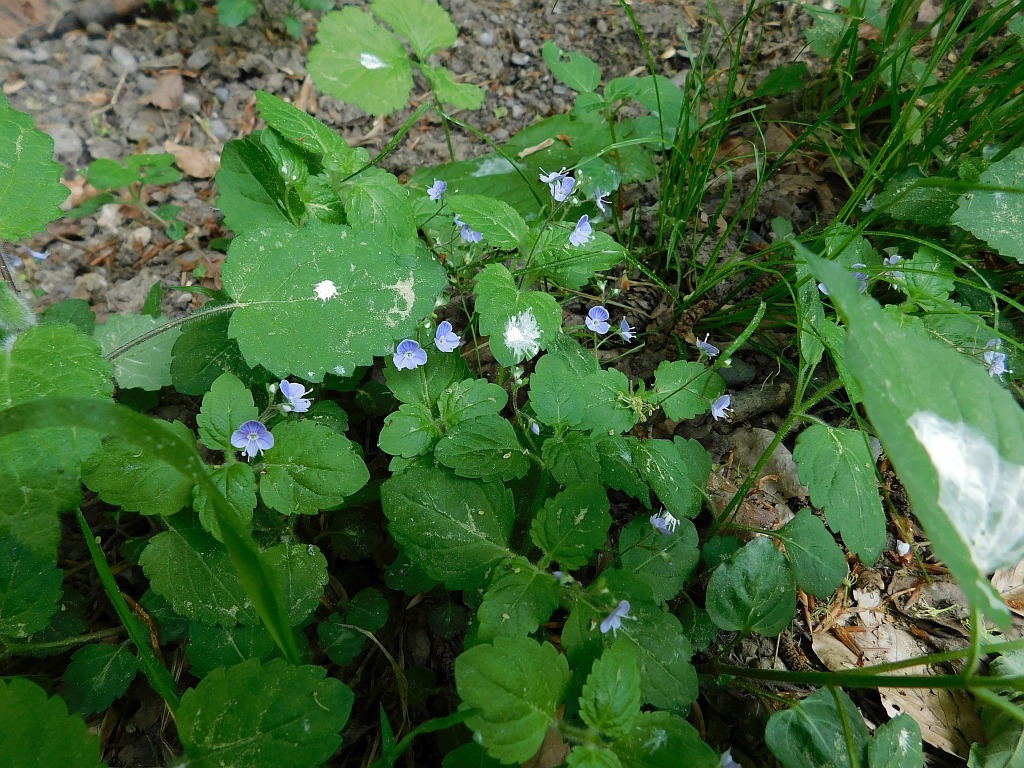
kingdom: Plantae
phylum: Tracheophyta
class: Magnoliopsida
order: Lamiales
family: Plantaginaceae
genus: Veronica
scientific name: Veronica montana
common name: Wood speedwell
